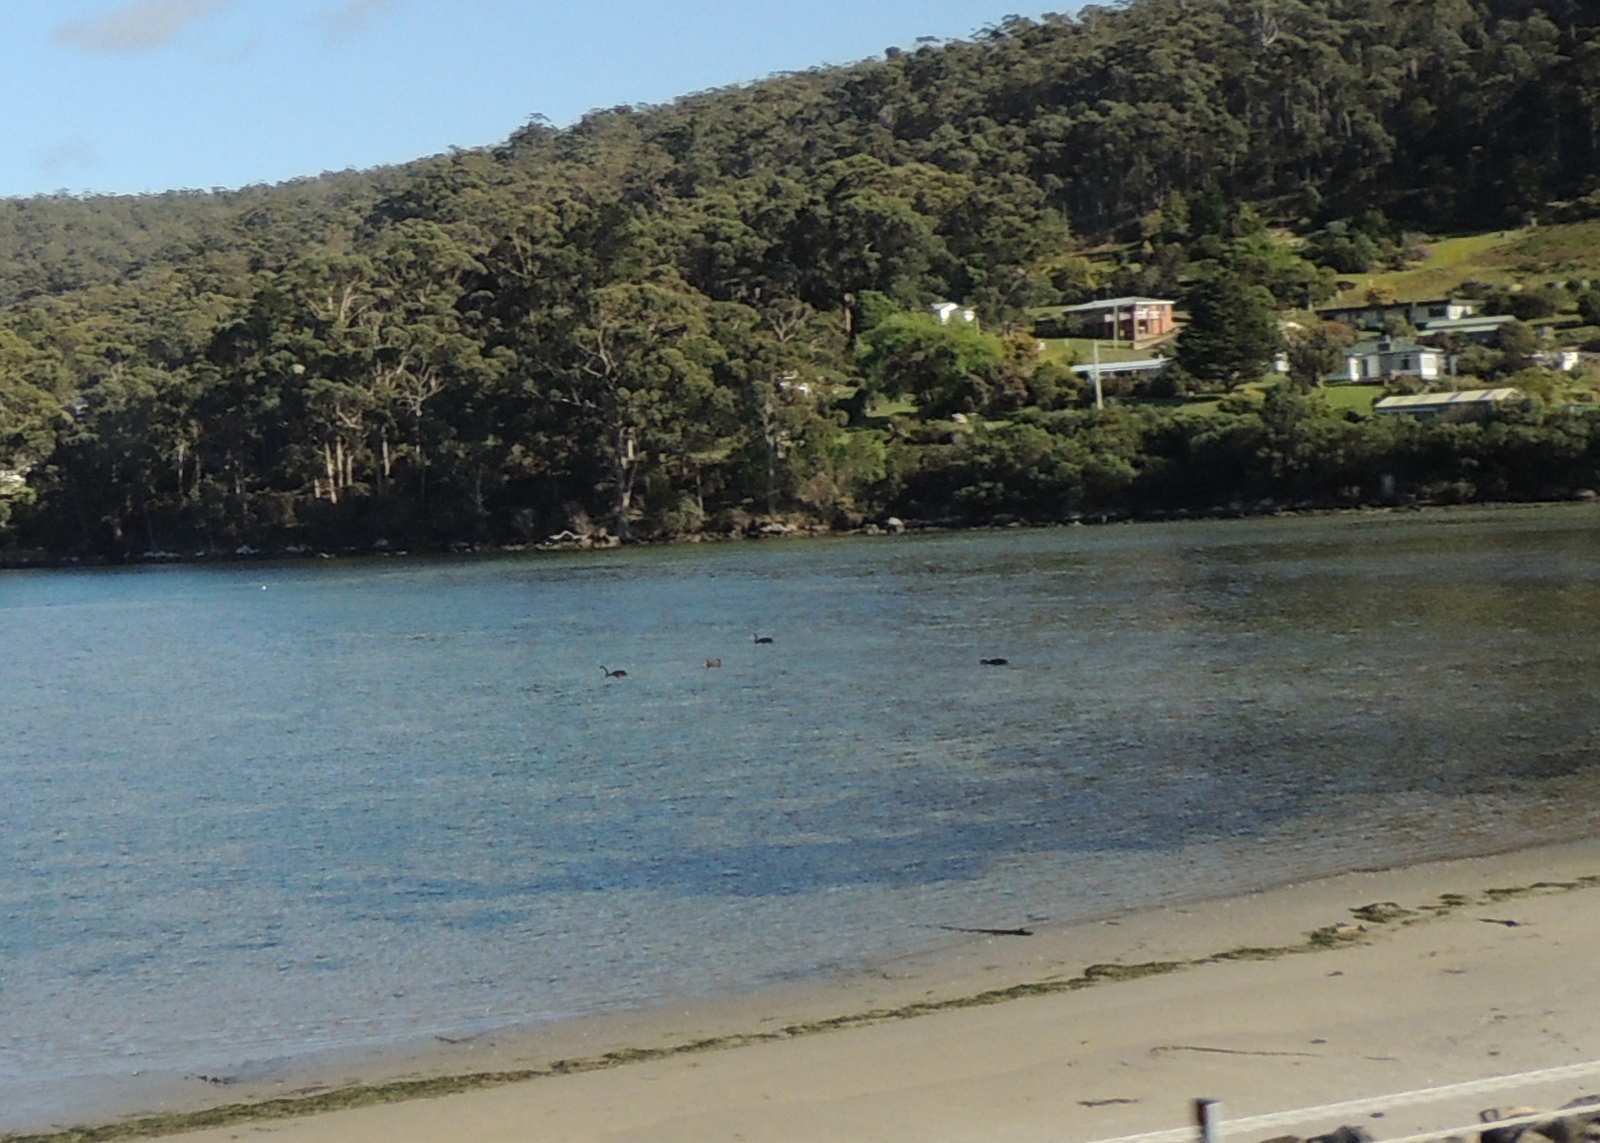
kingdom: Animalia
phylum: Chordata
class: Aves
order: Anseriformes
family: Anatidae
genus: Cygnus
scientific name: Cygnus atratus
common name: Black swan
